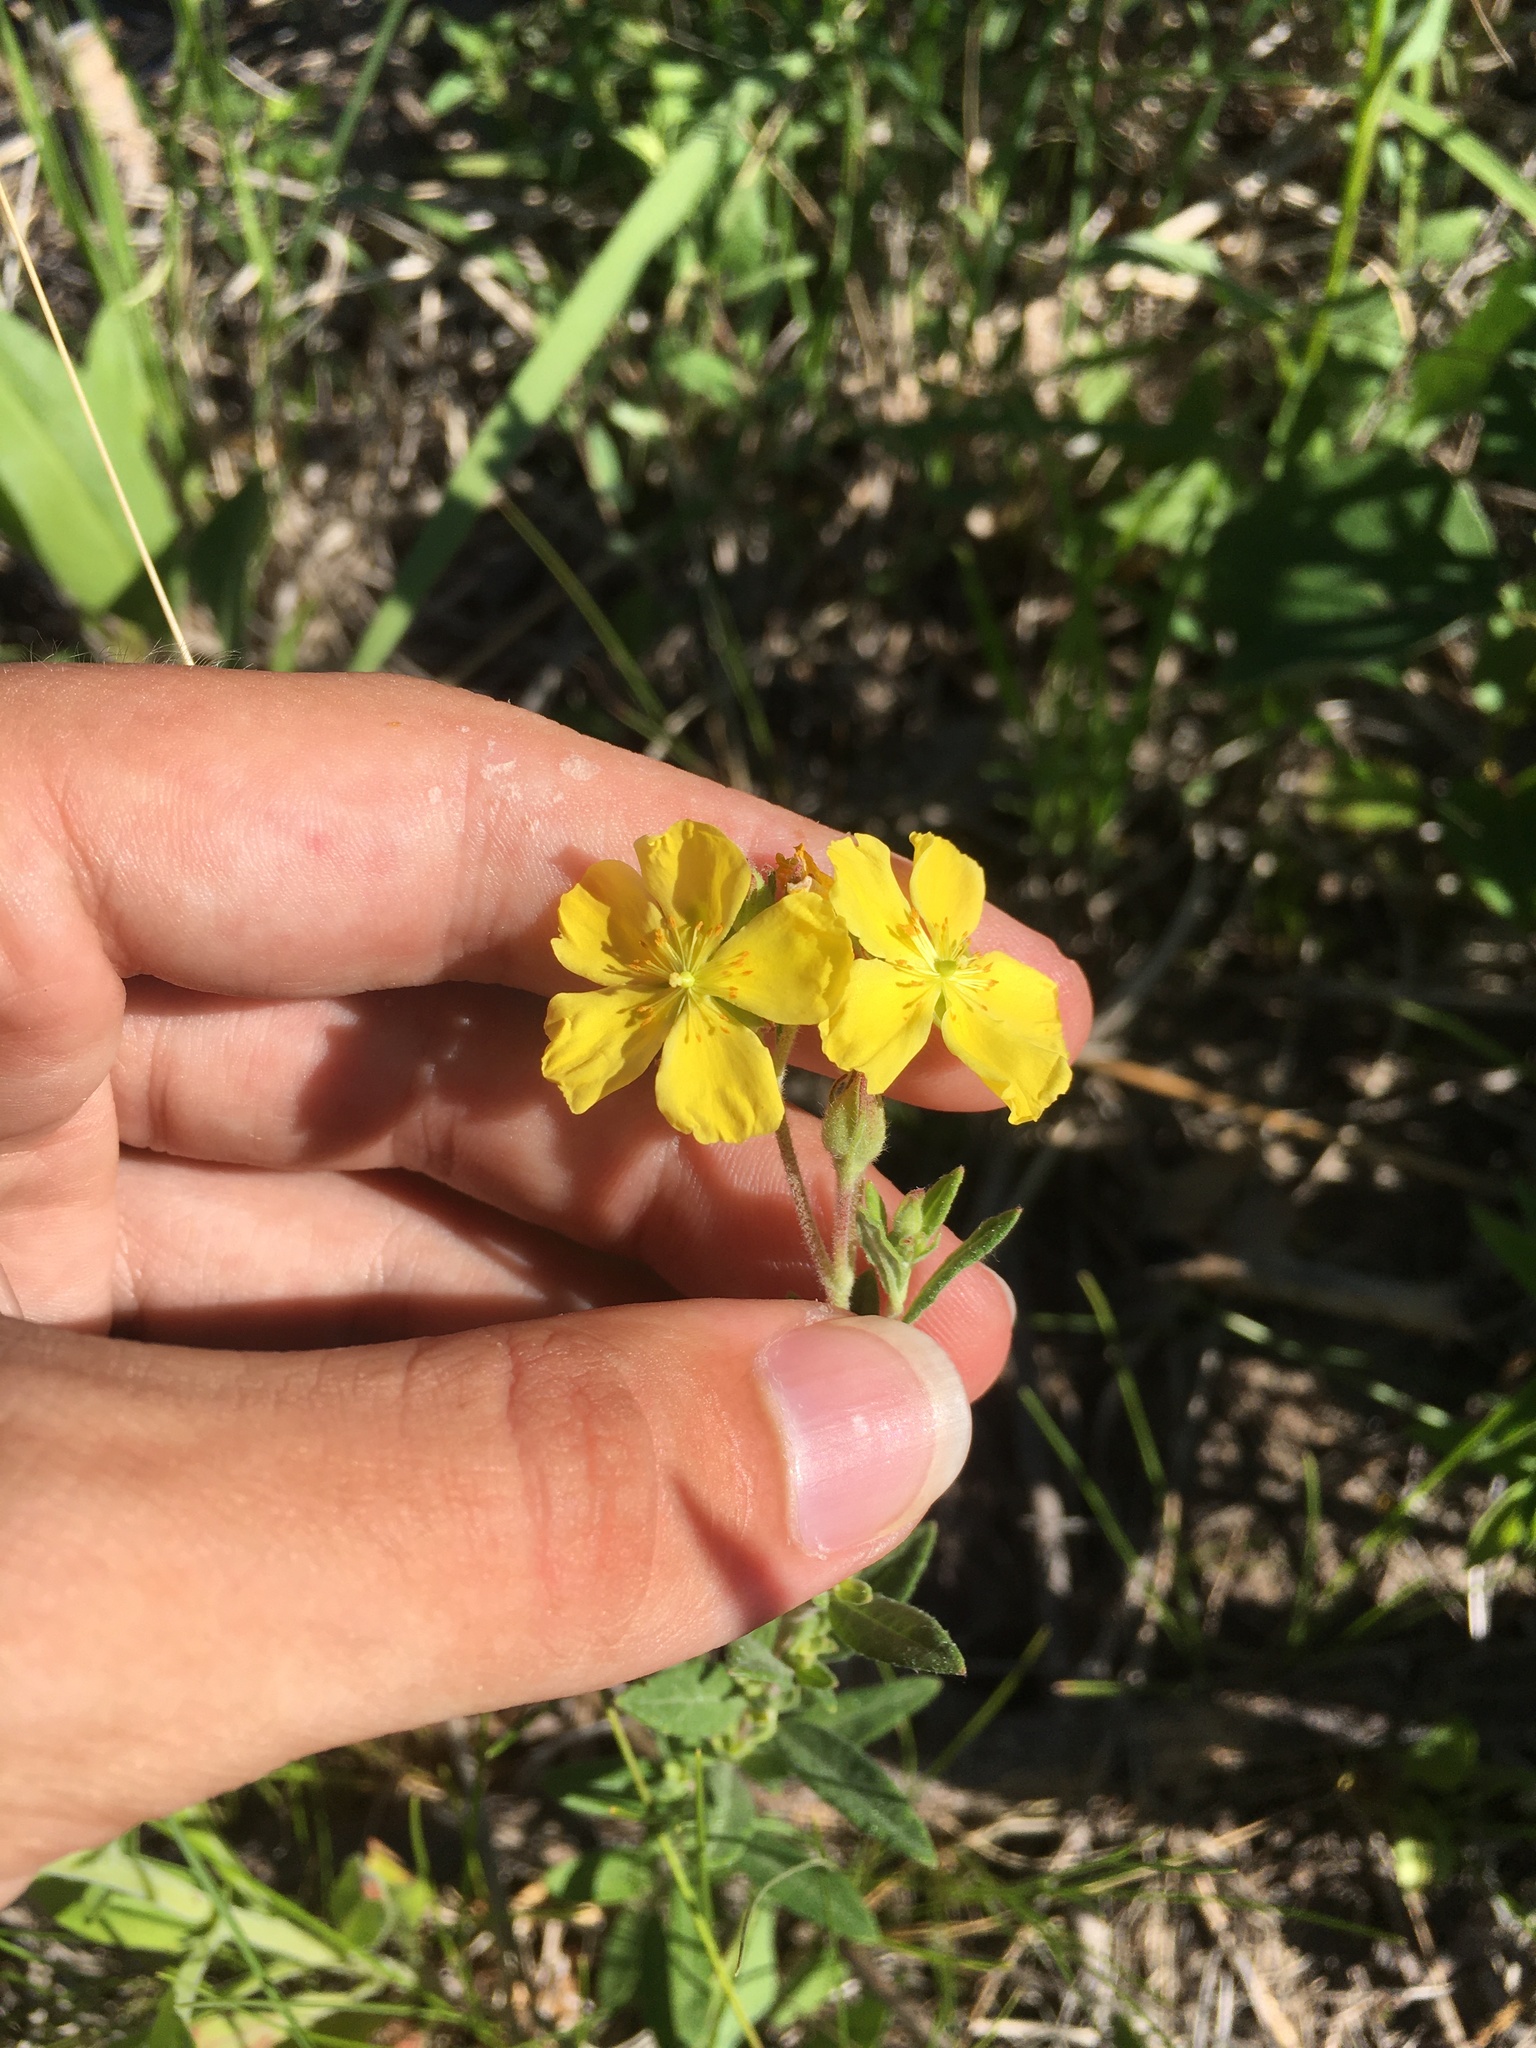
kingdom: Plantae
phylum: Tracheophyta
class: Magnoliopsida
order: Malvales
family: Cistaceae
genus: Crocanthemum
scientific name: Crocanthemum bicknellii
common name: Hoary frostweed
